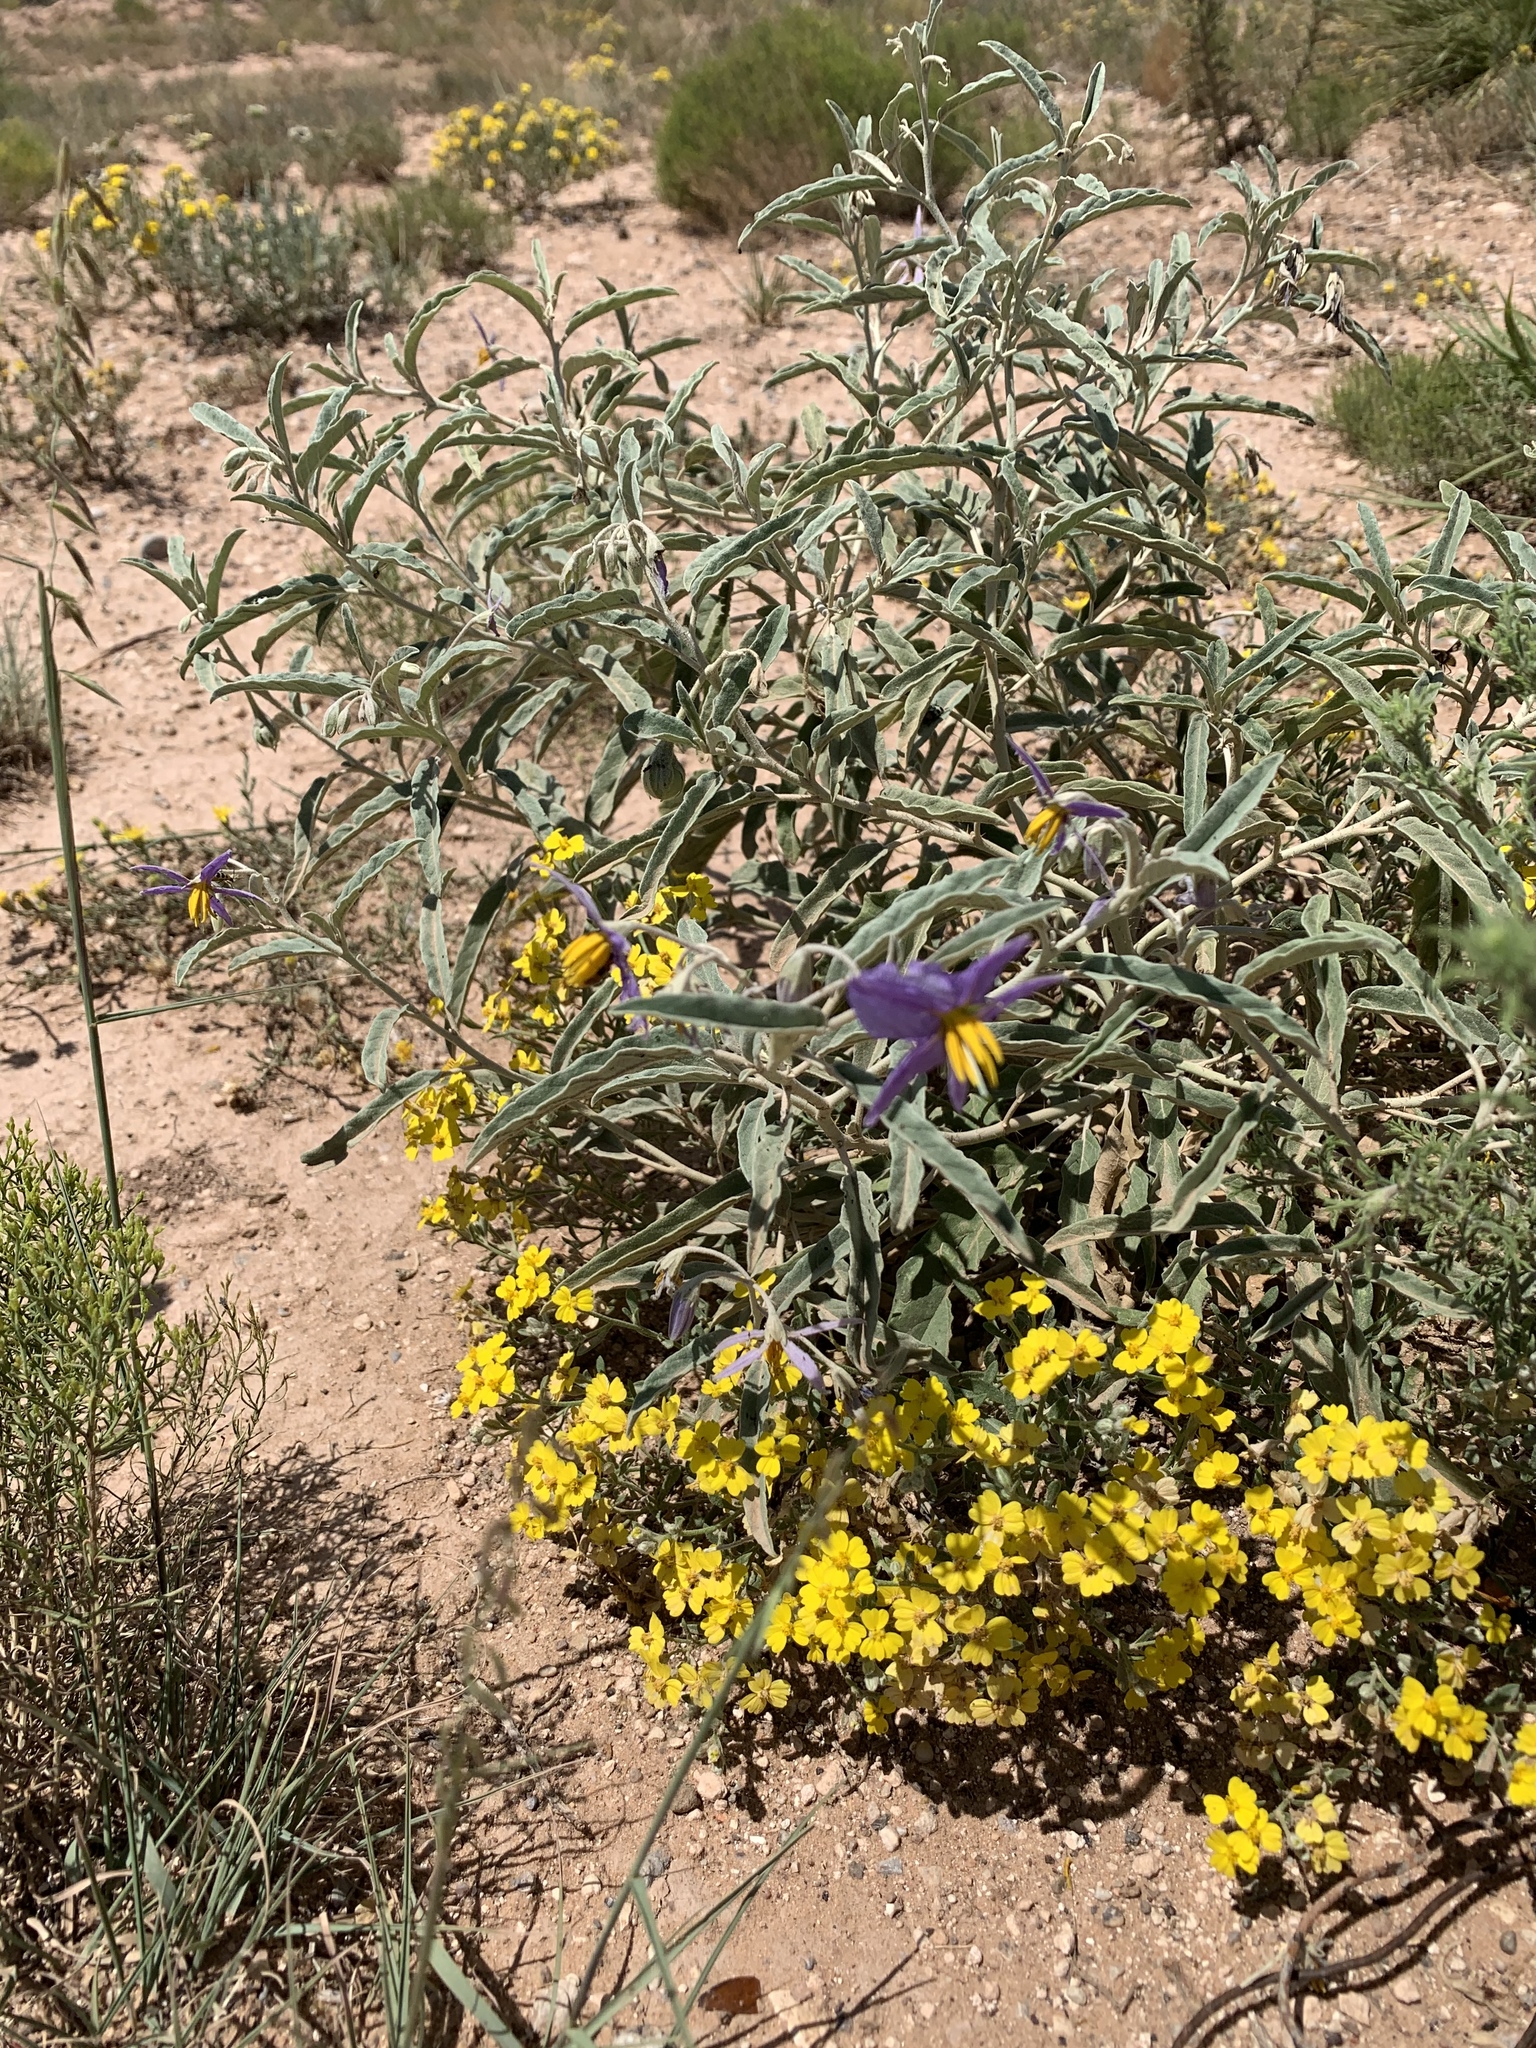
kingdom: Plantae
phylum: Tracheophyta
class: Magnoliopsida
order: Solanales
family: Solanaceae
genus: Solanum
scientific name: Solanum elaeagnifolium
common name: Silverleaf nightshade
